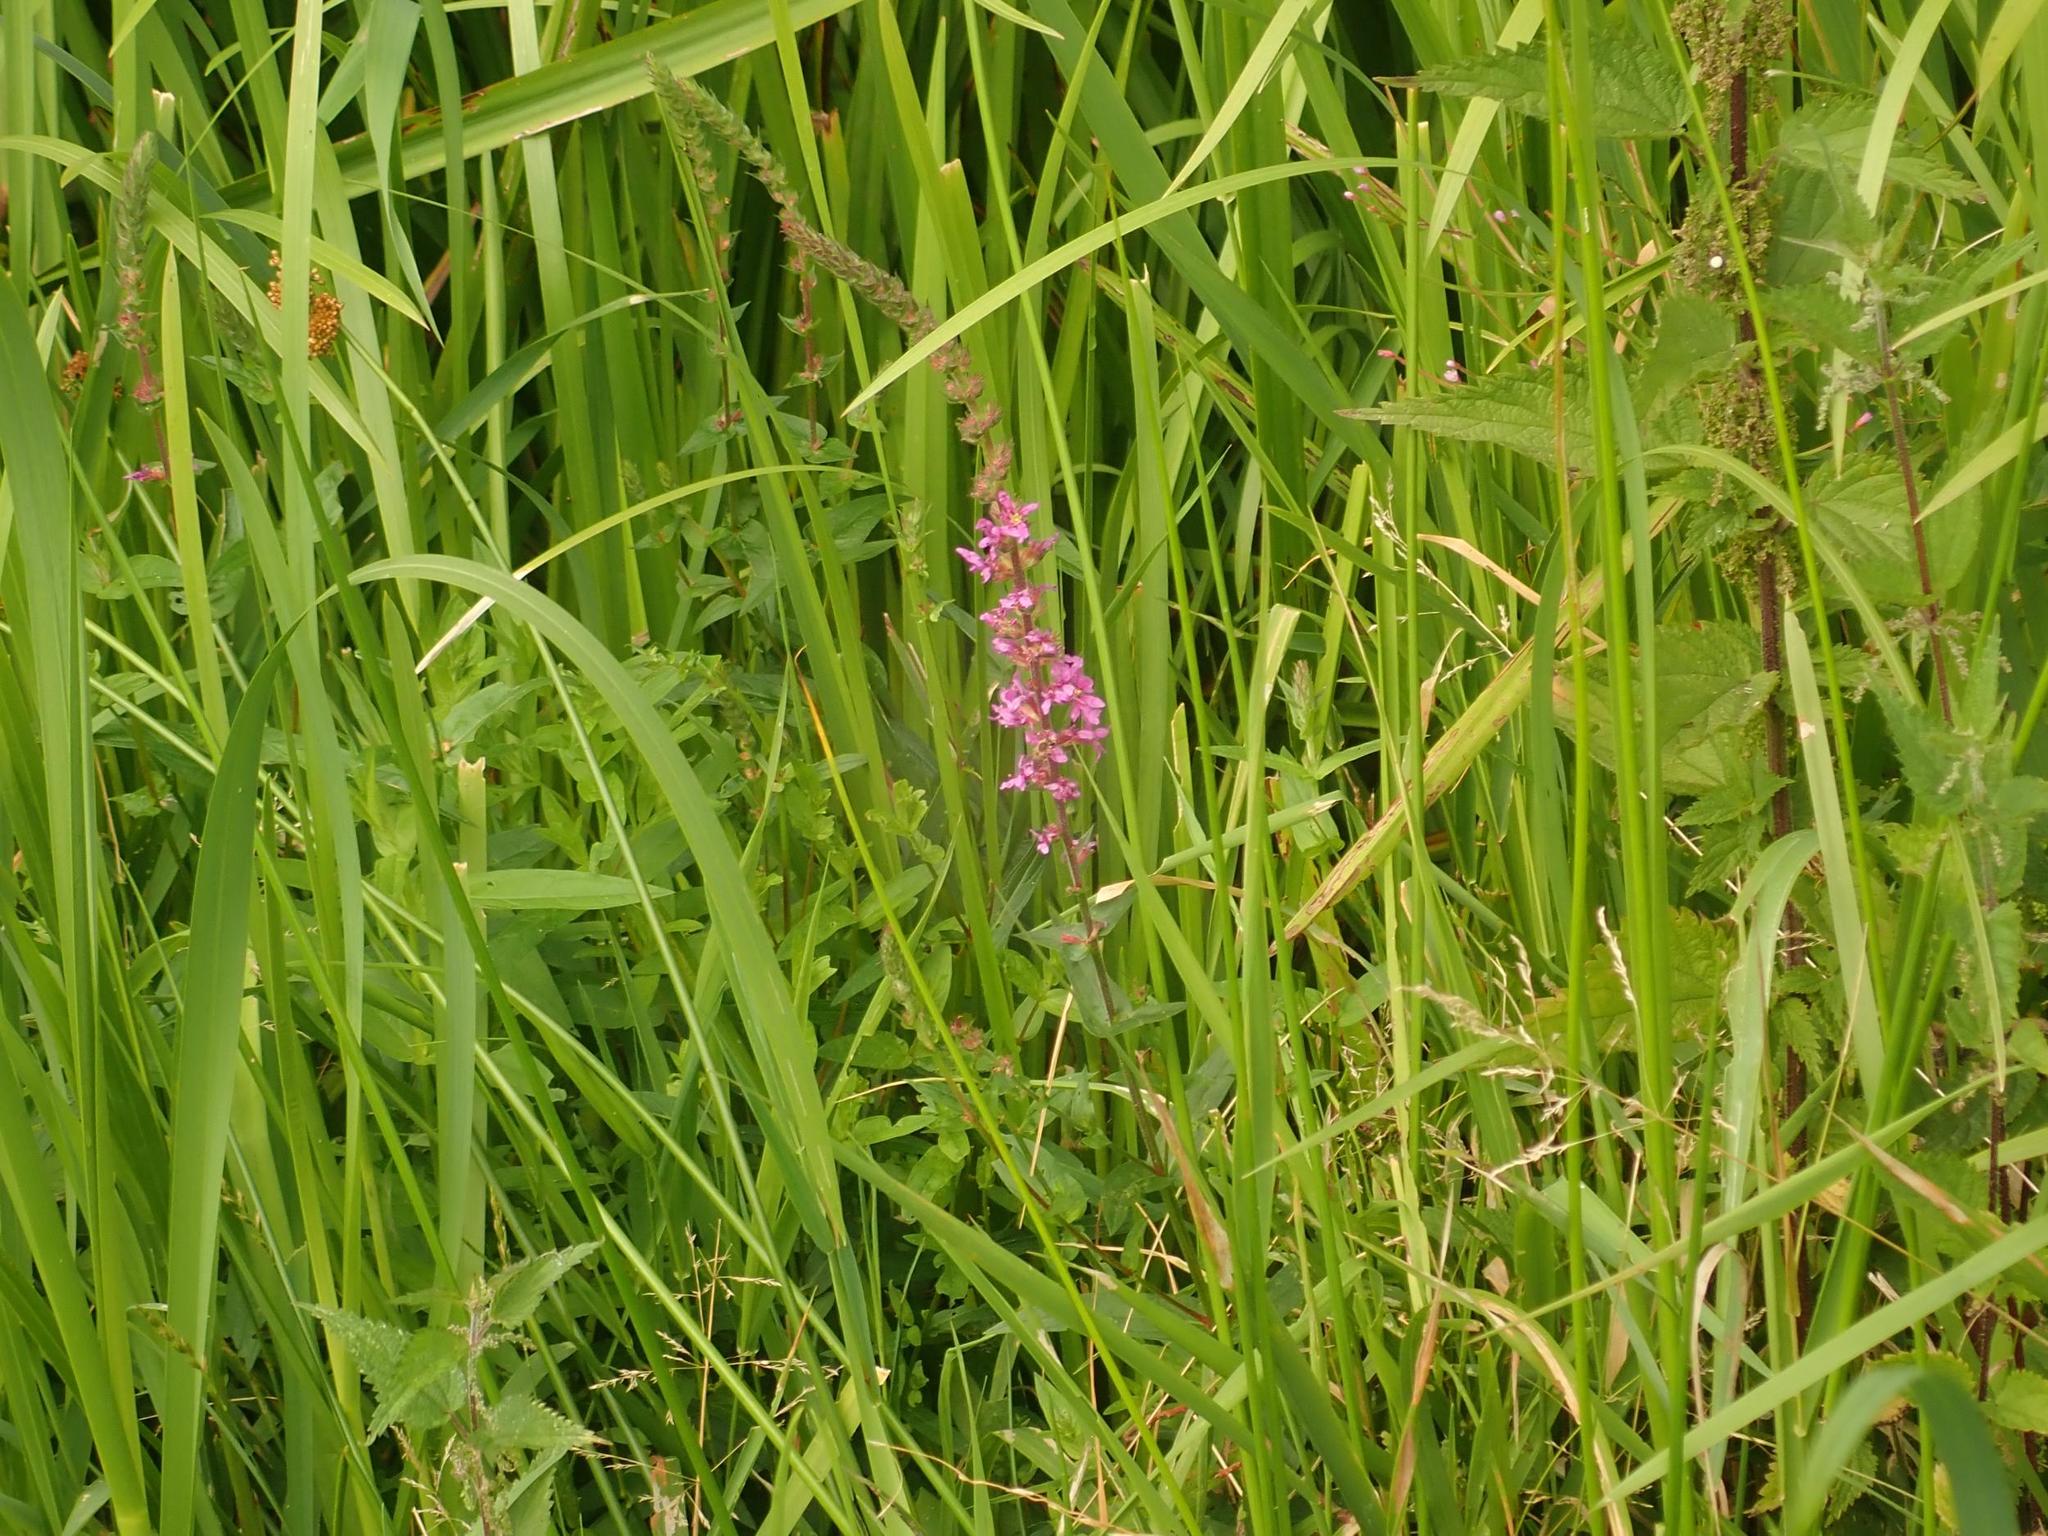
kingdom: Plantae
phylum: Tracheophyta
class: Magnoliopsida
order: Myrtales
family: Lythraceae
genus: Lythrum
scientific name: Lythrum salicaria
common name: Purple loosestrife
